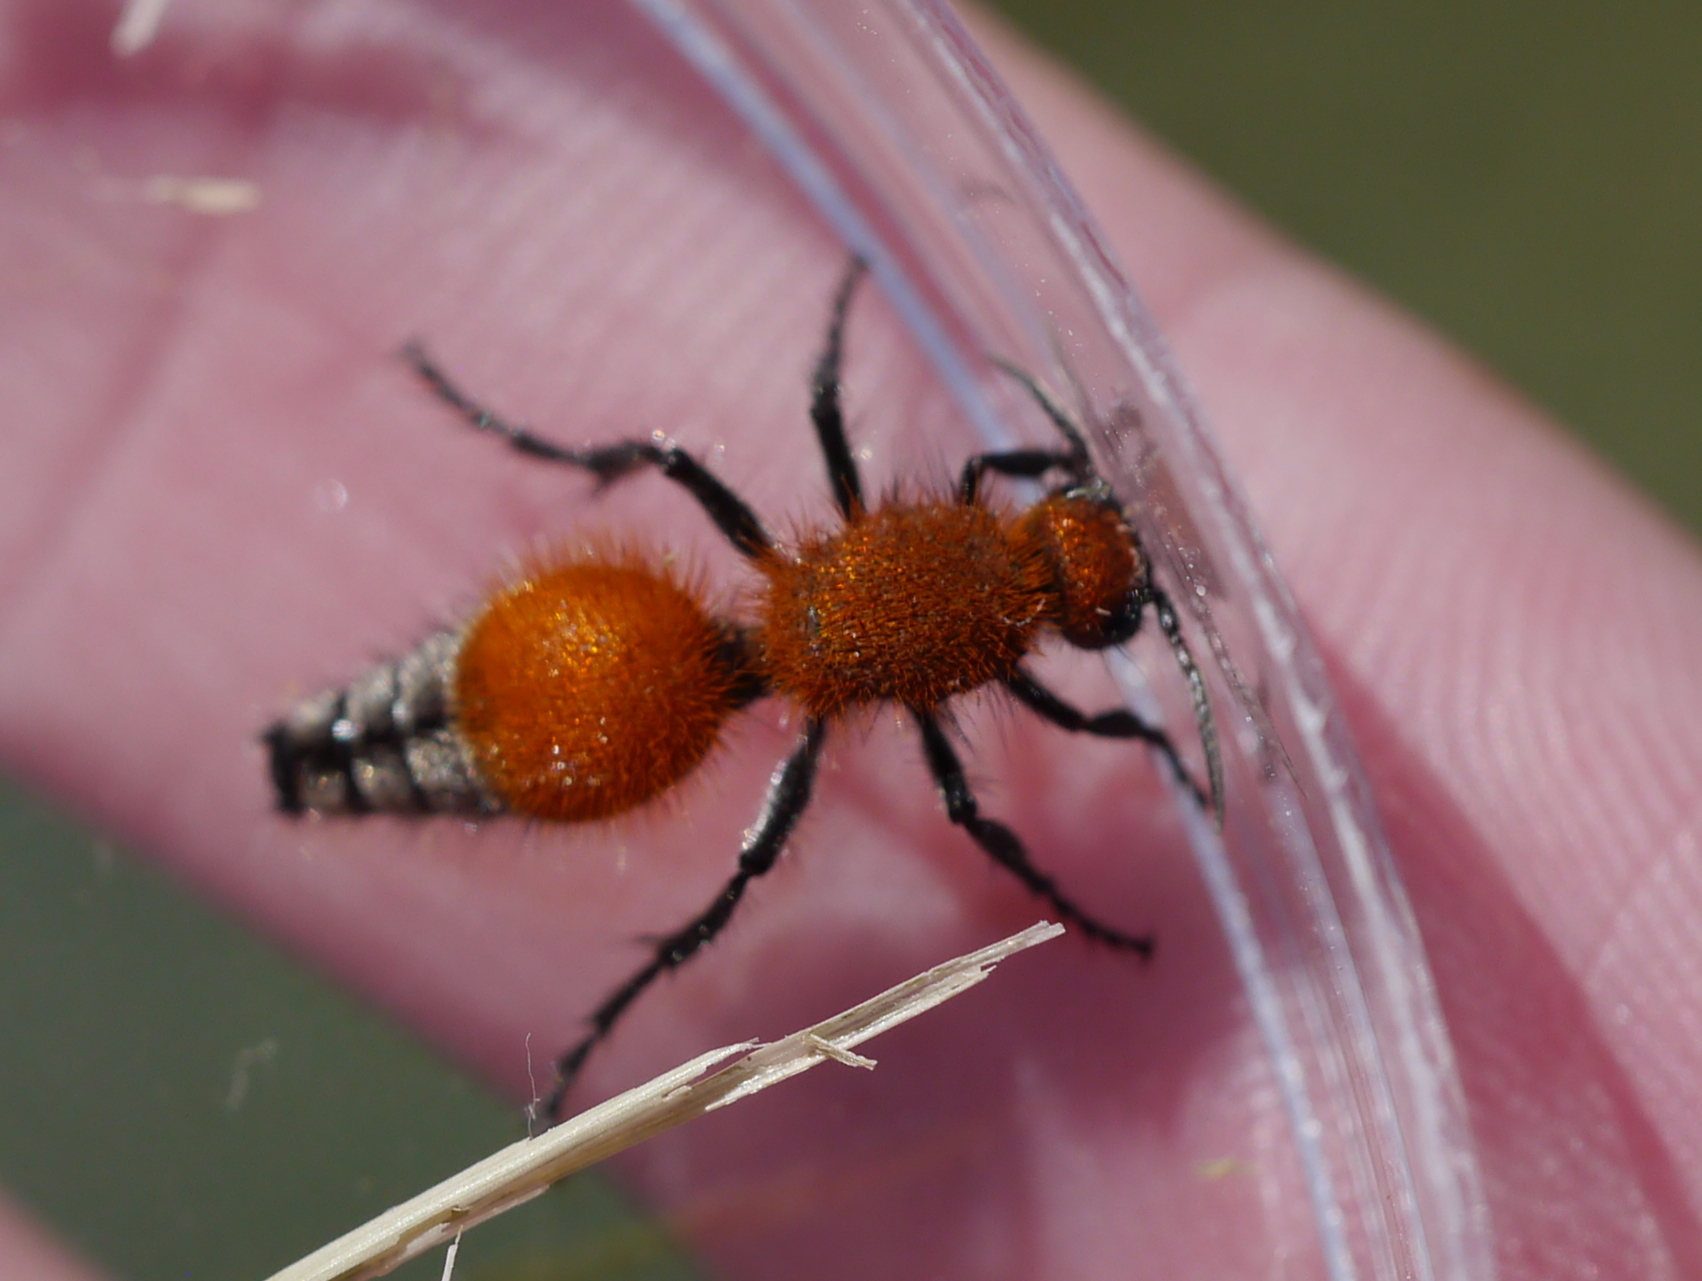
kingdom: Animalia
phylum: Arthropoda
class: Insecta
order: Hymenoptera
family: Mutillidae
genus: Dasymutilla
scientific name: Dasymutilla
